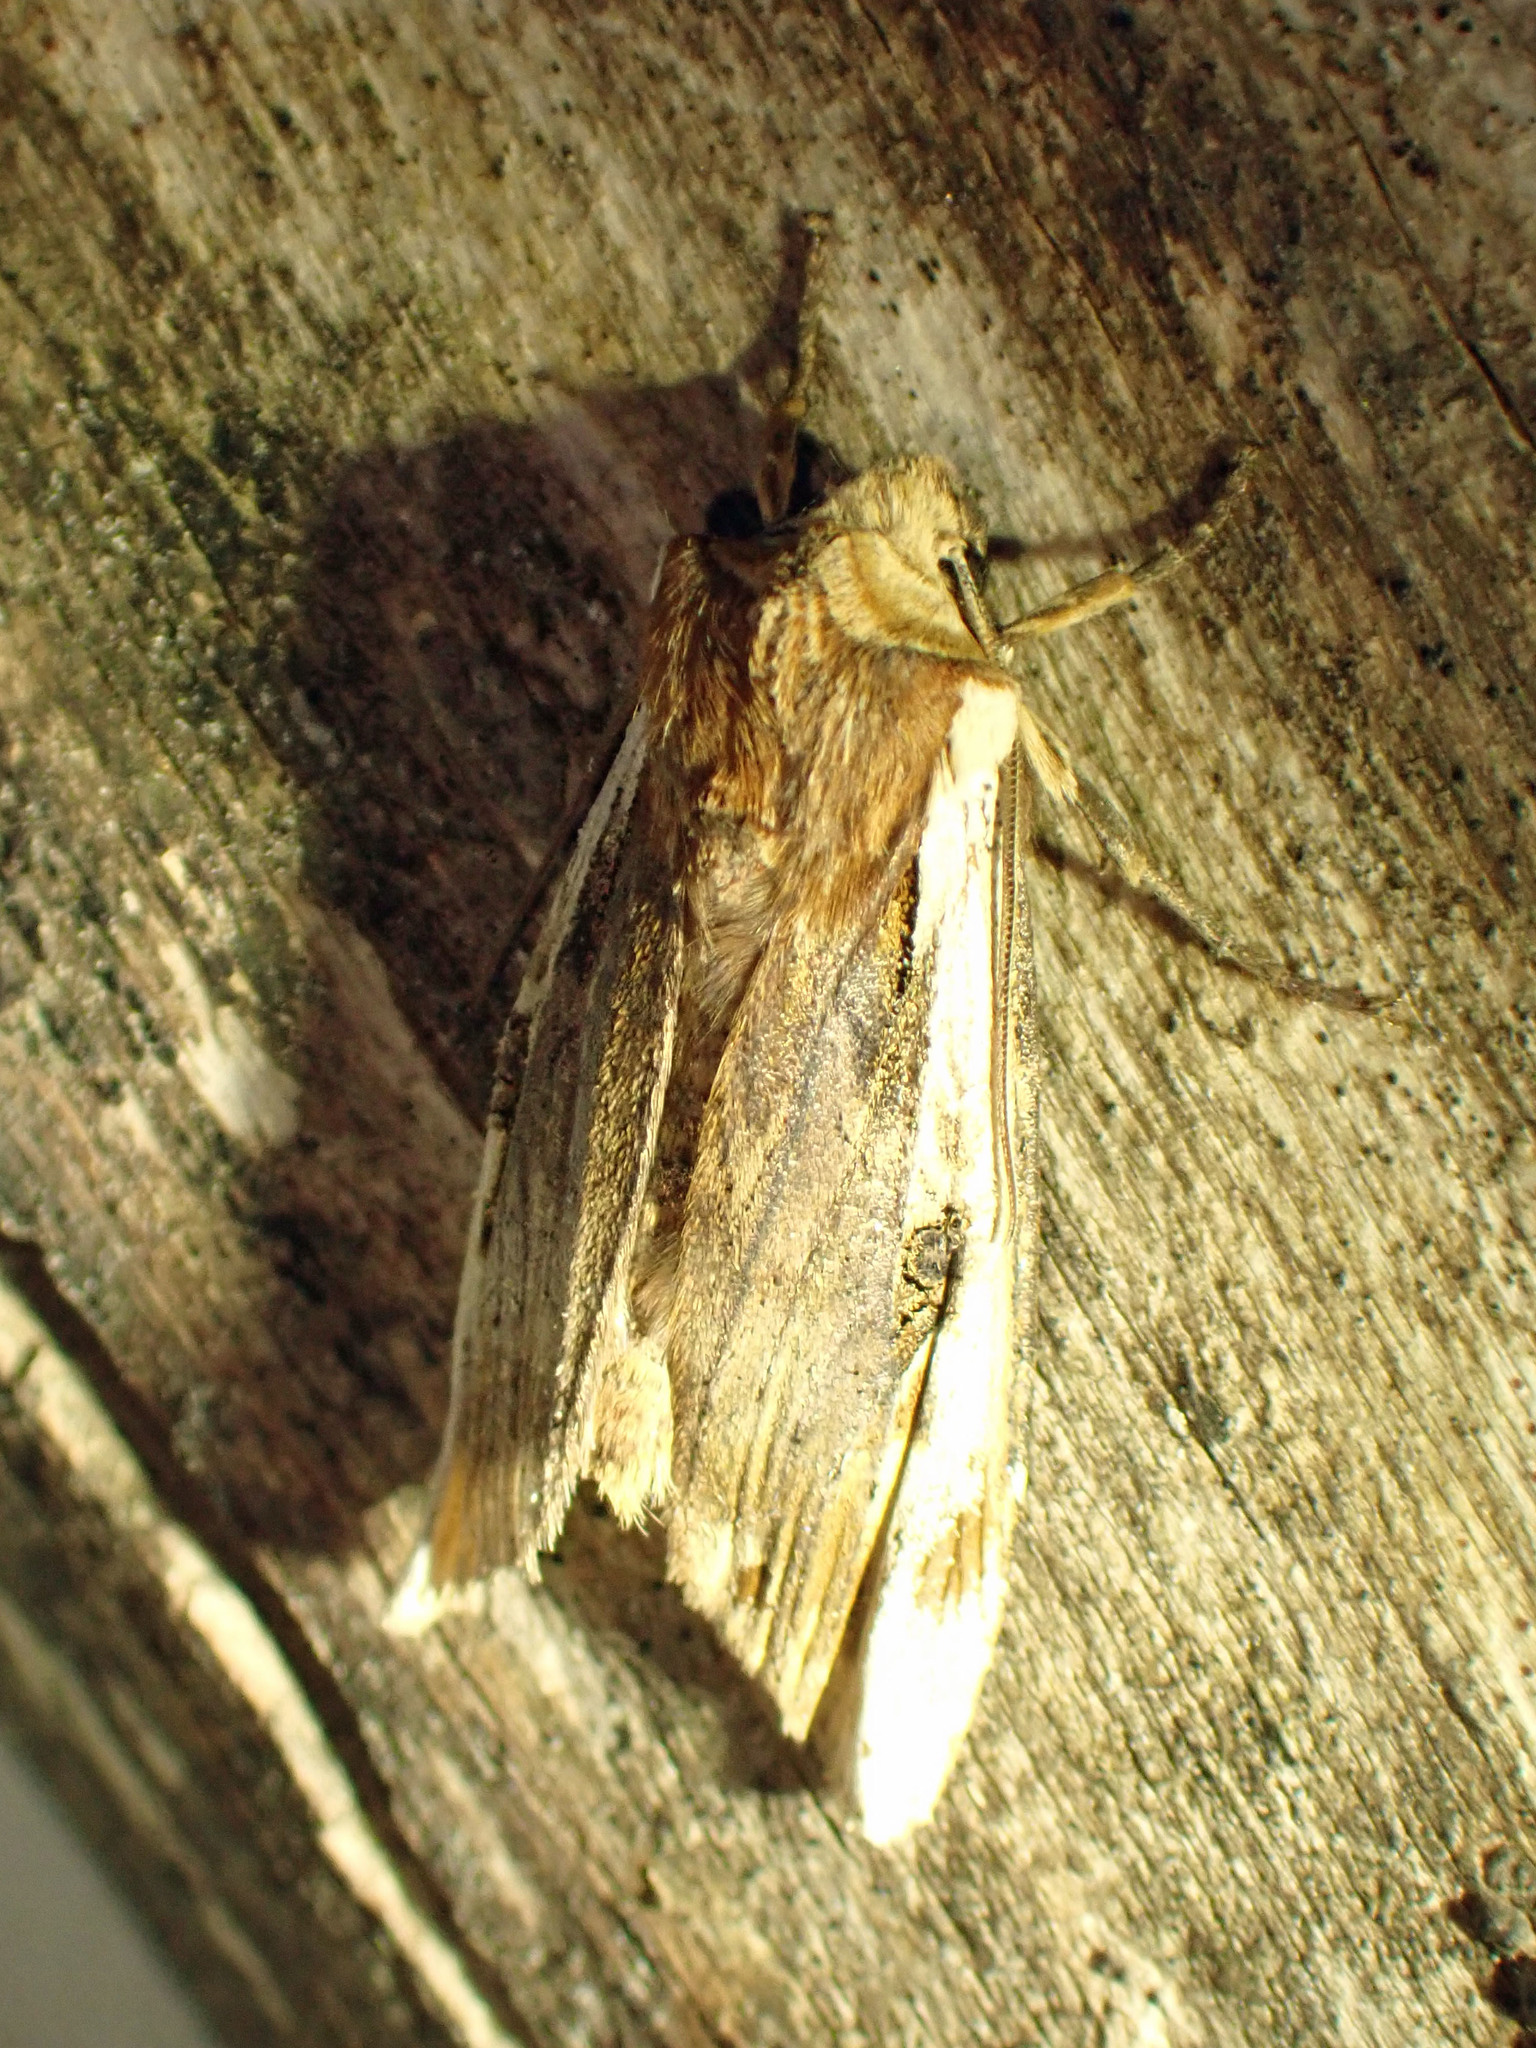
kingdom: Animalia
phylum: Arthropoda
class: Insecta
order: Lepidoptera
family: Noctuidae
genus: Xylena
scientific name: Xylena curvimacula
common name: Dot-and-dash swordgrass moth
